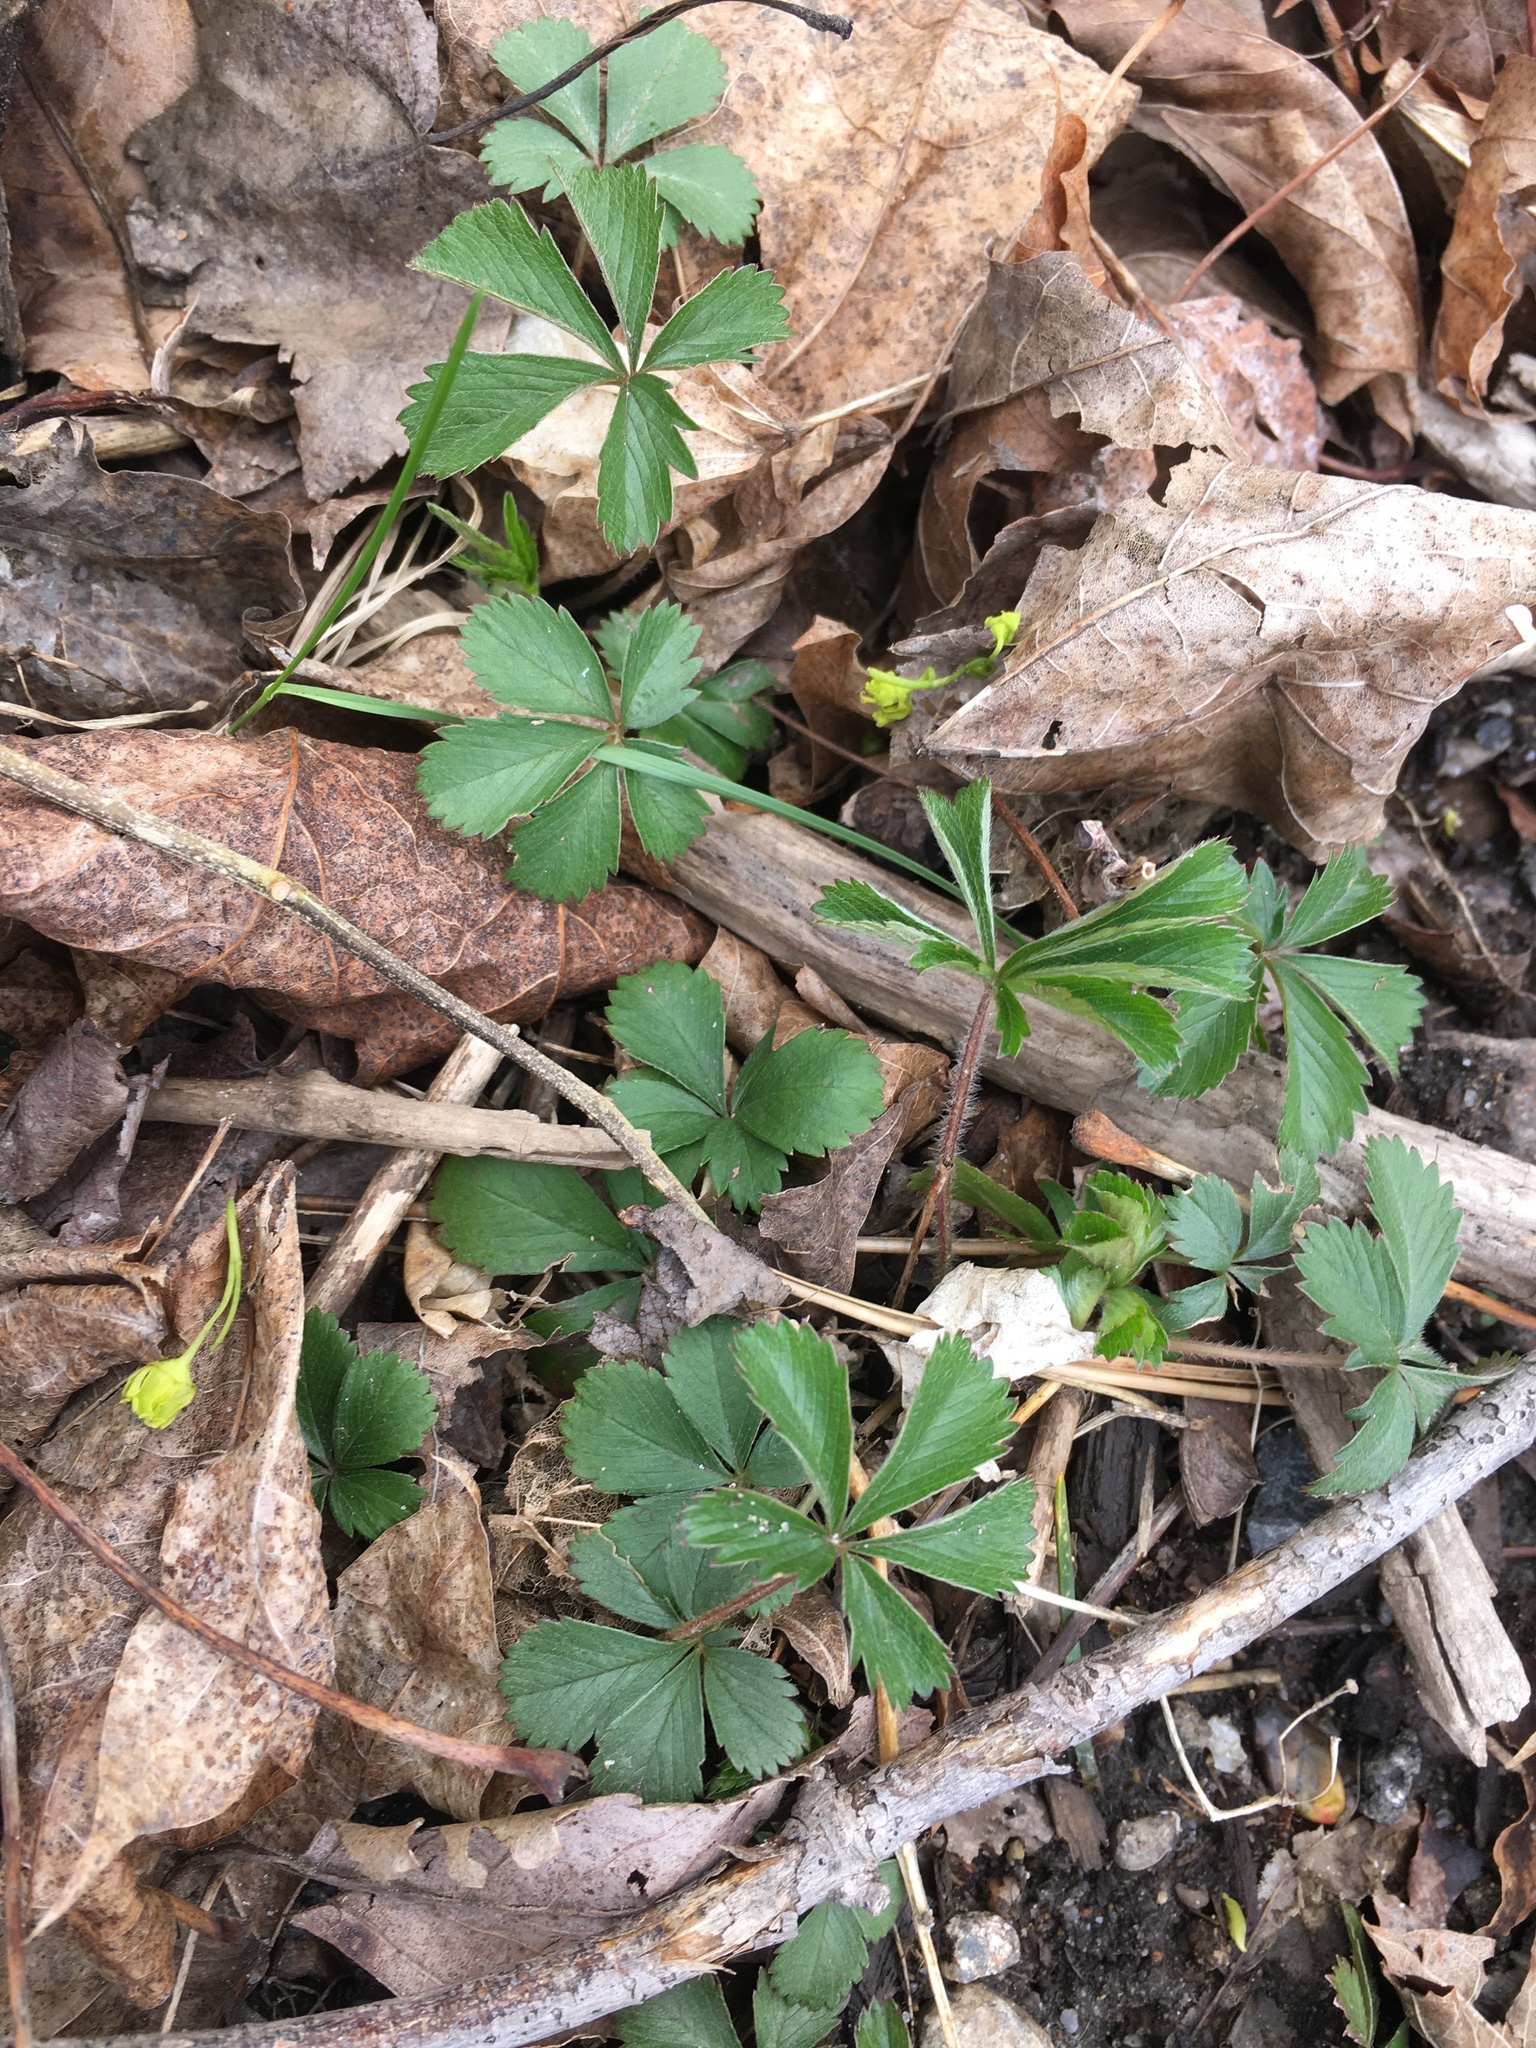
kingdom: Plantae
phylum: Tracheophyta
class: Magnoliopsida
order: Rosales
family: Rosaceae
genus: Potentilla
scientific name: Potentilla canadensis
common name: Canada cinquefoil
